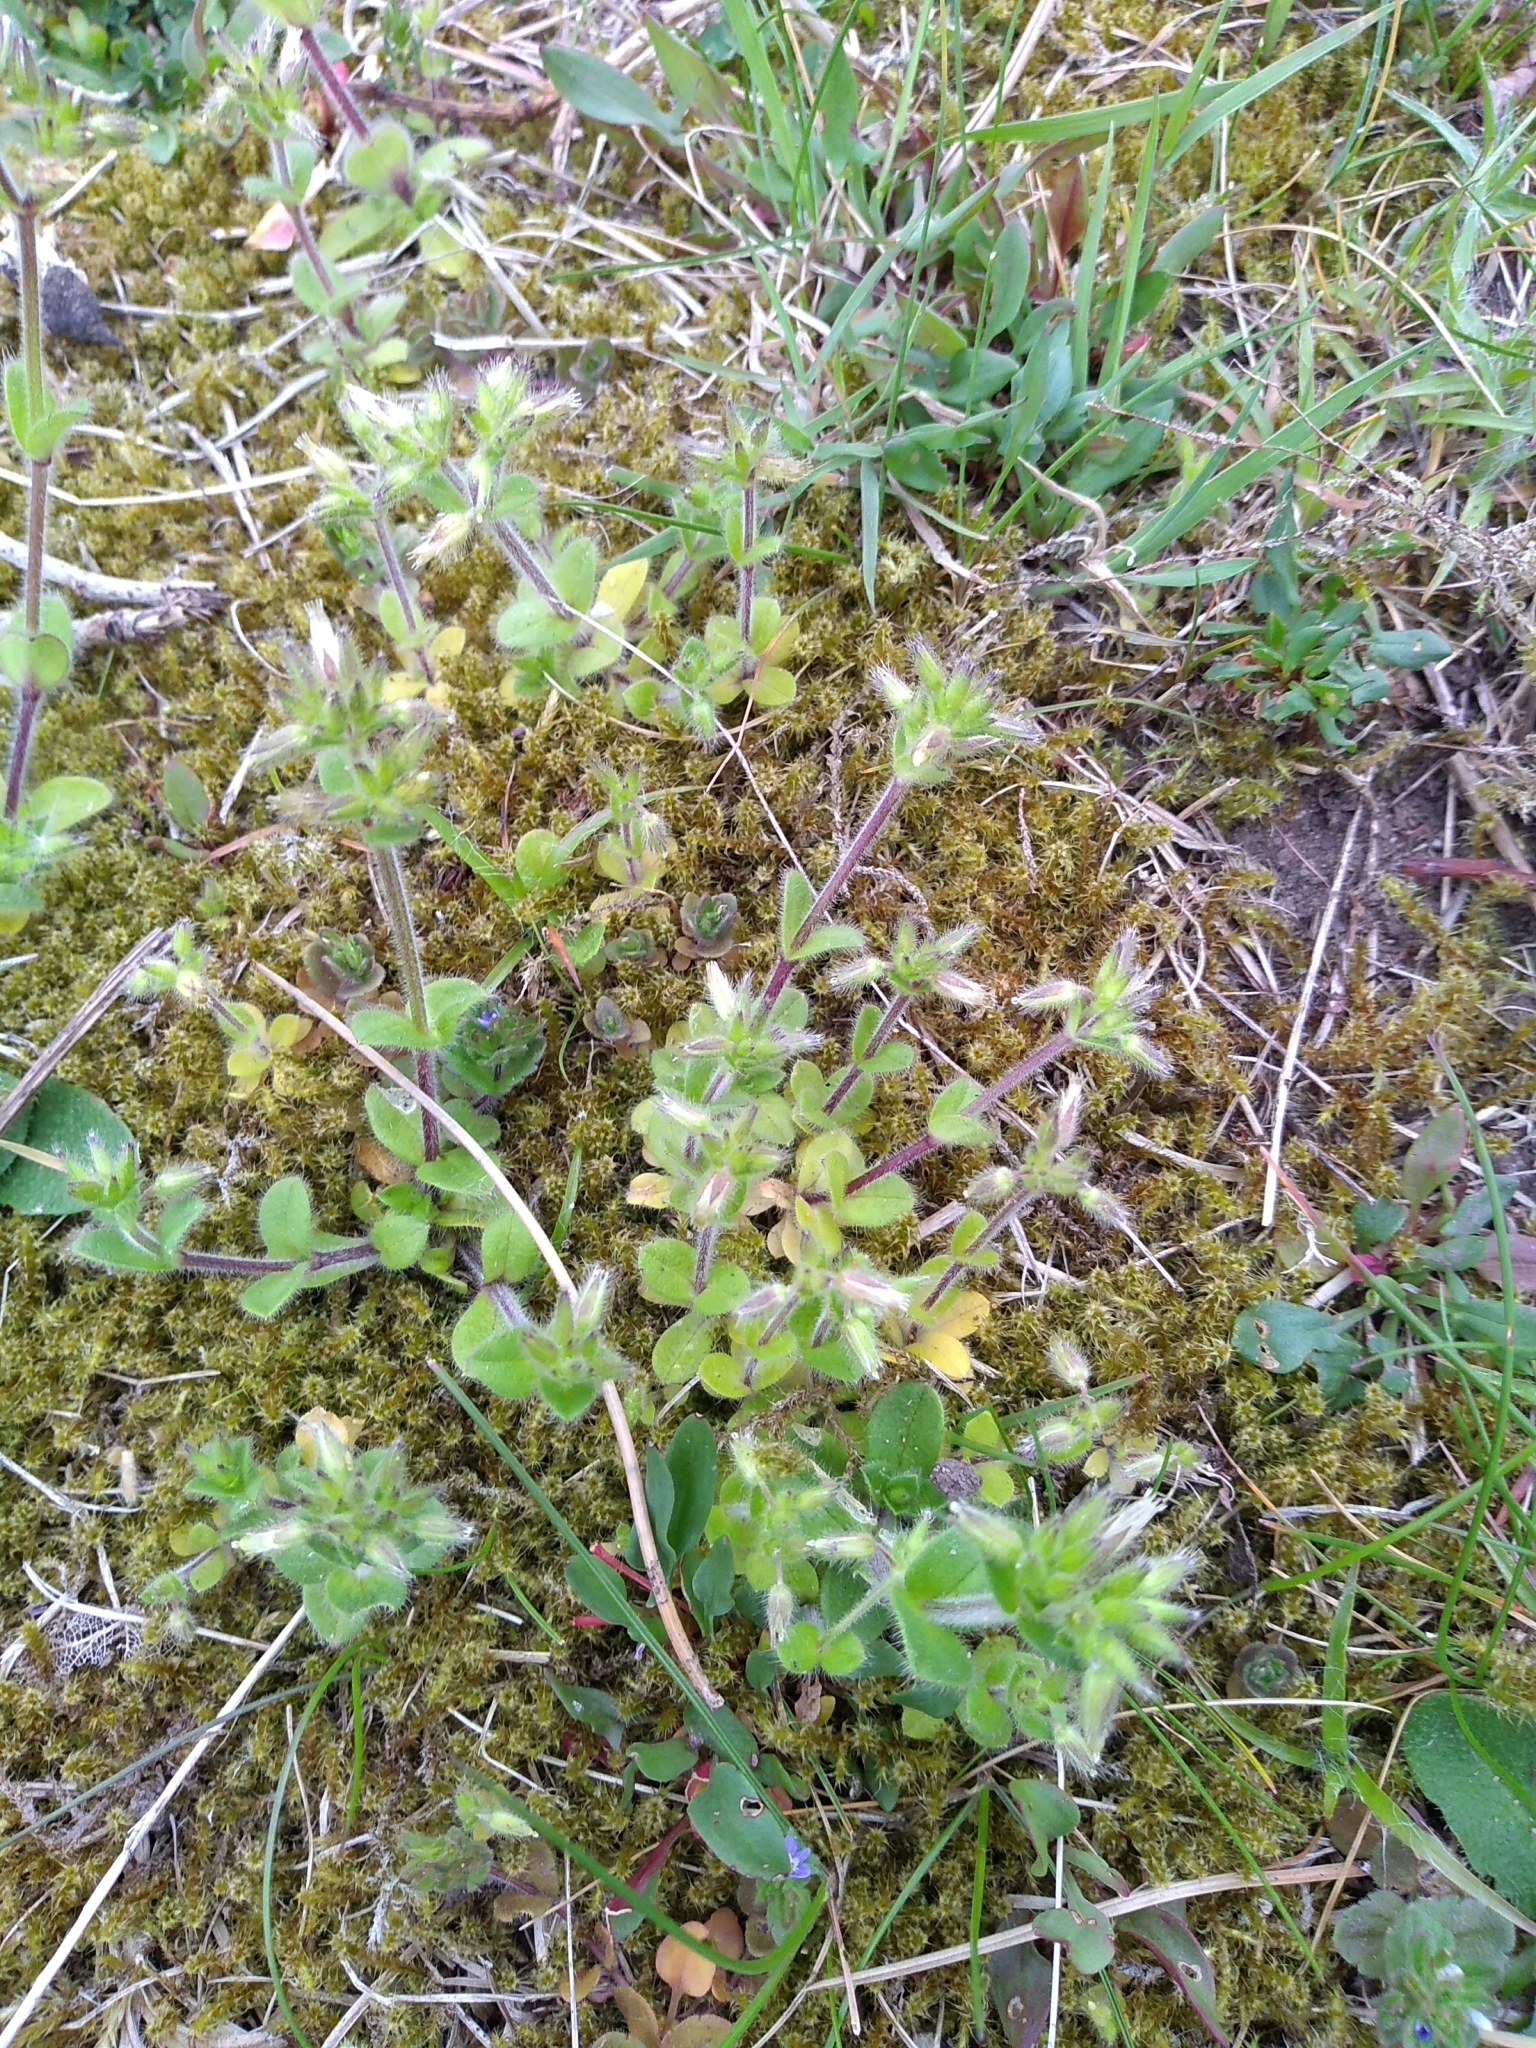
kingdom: Plantae
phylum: Tracheophyta
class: Magnoliopsida
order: Caryophyllales
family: Caryophyllaceae
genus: Cerastium
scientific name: Cerastium glomeratum
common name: Sticky chickweed
